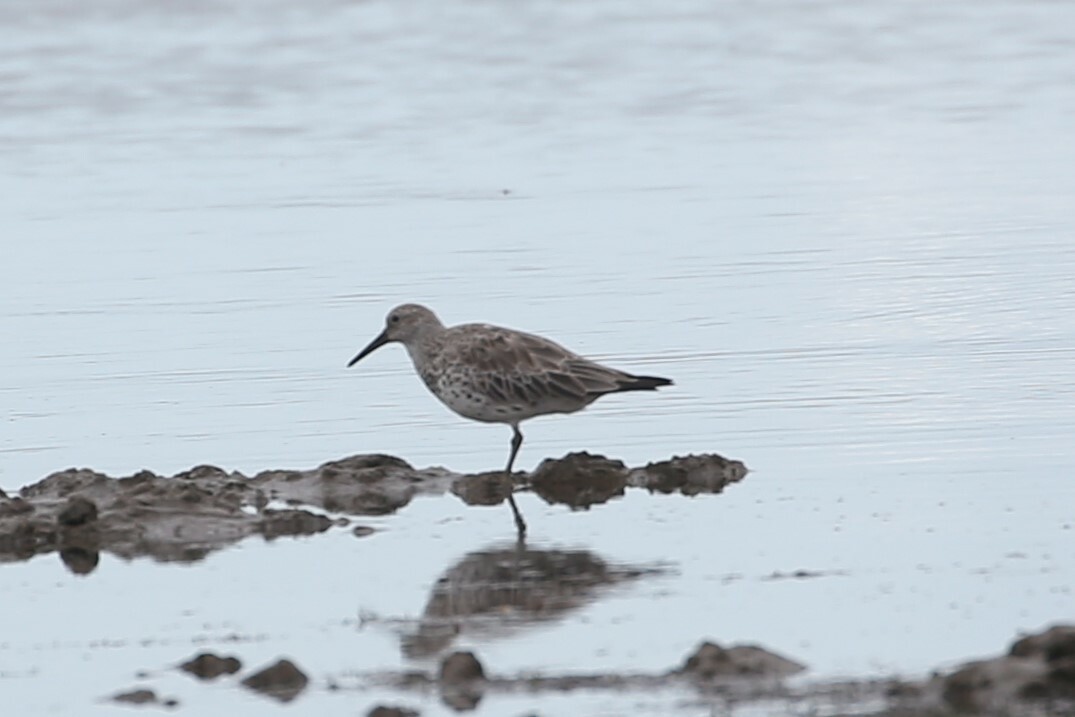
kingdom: Animalia
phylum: Chordata
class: Aves
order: Charadriiformes
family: Scolopacidae
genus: Calidris
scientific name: Calidris tenuirostris
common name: Great knot
